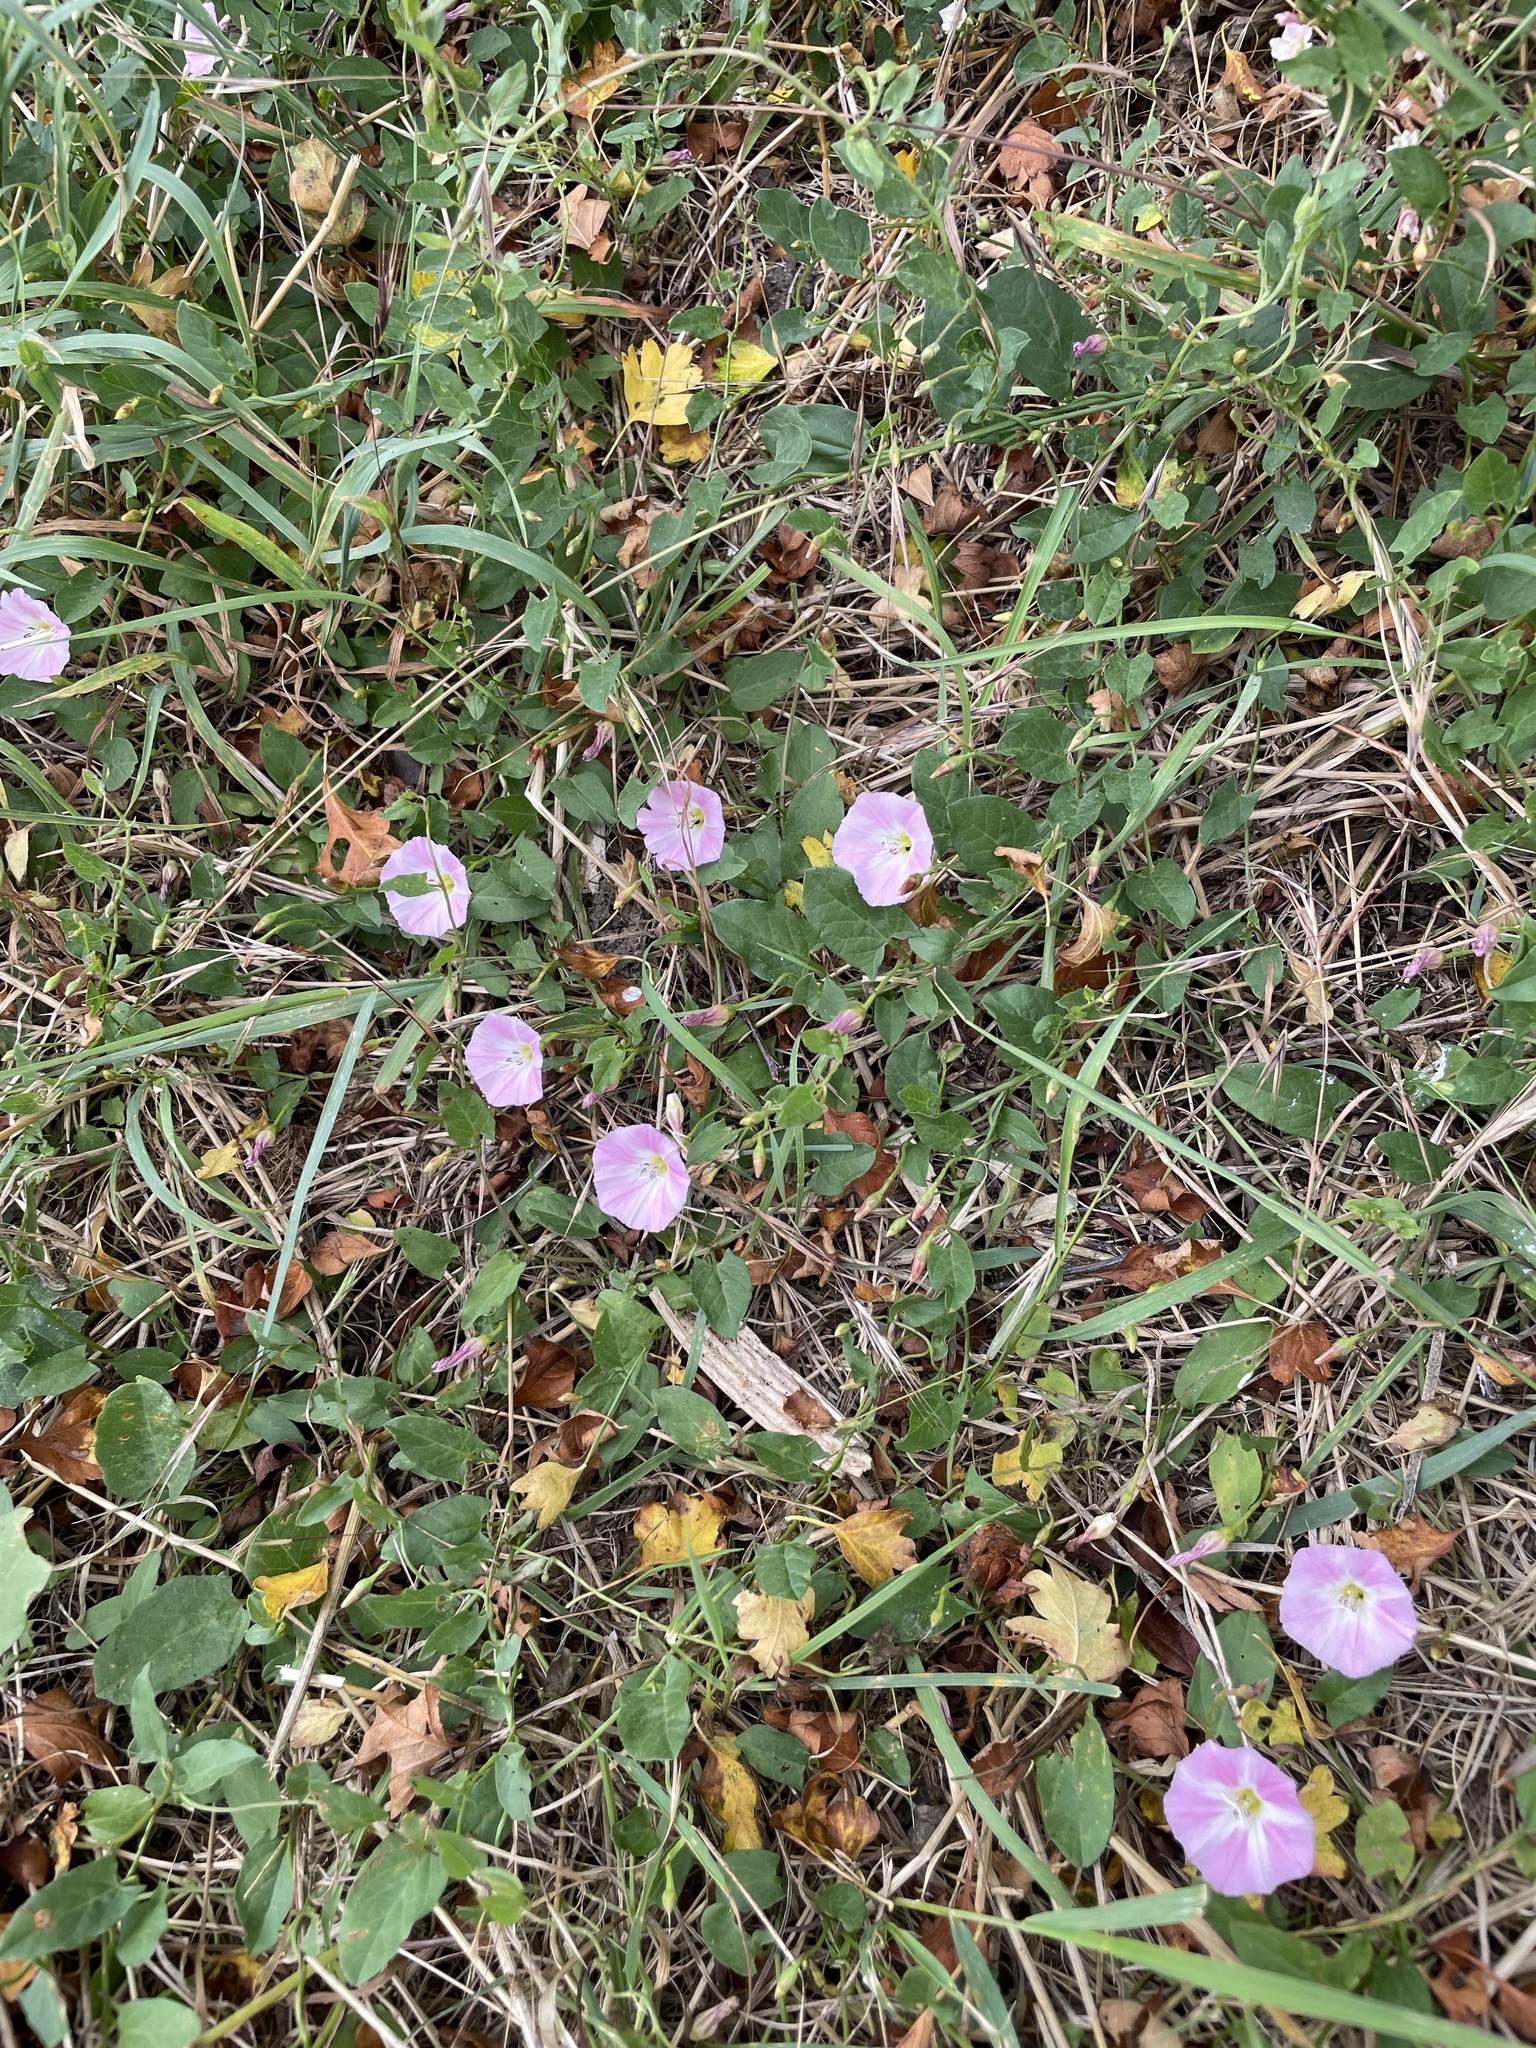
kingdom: Plantae
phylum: Tracheophyta
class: Magnoliopsida
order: Solanales
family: Convolvulaceae
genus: Convolvulus
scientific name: Convolvulus arvensis
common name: Field bindweed
